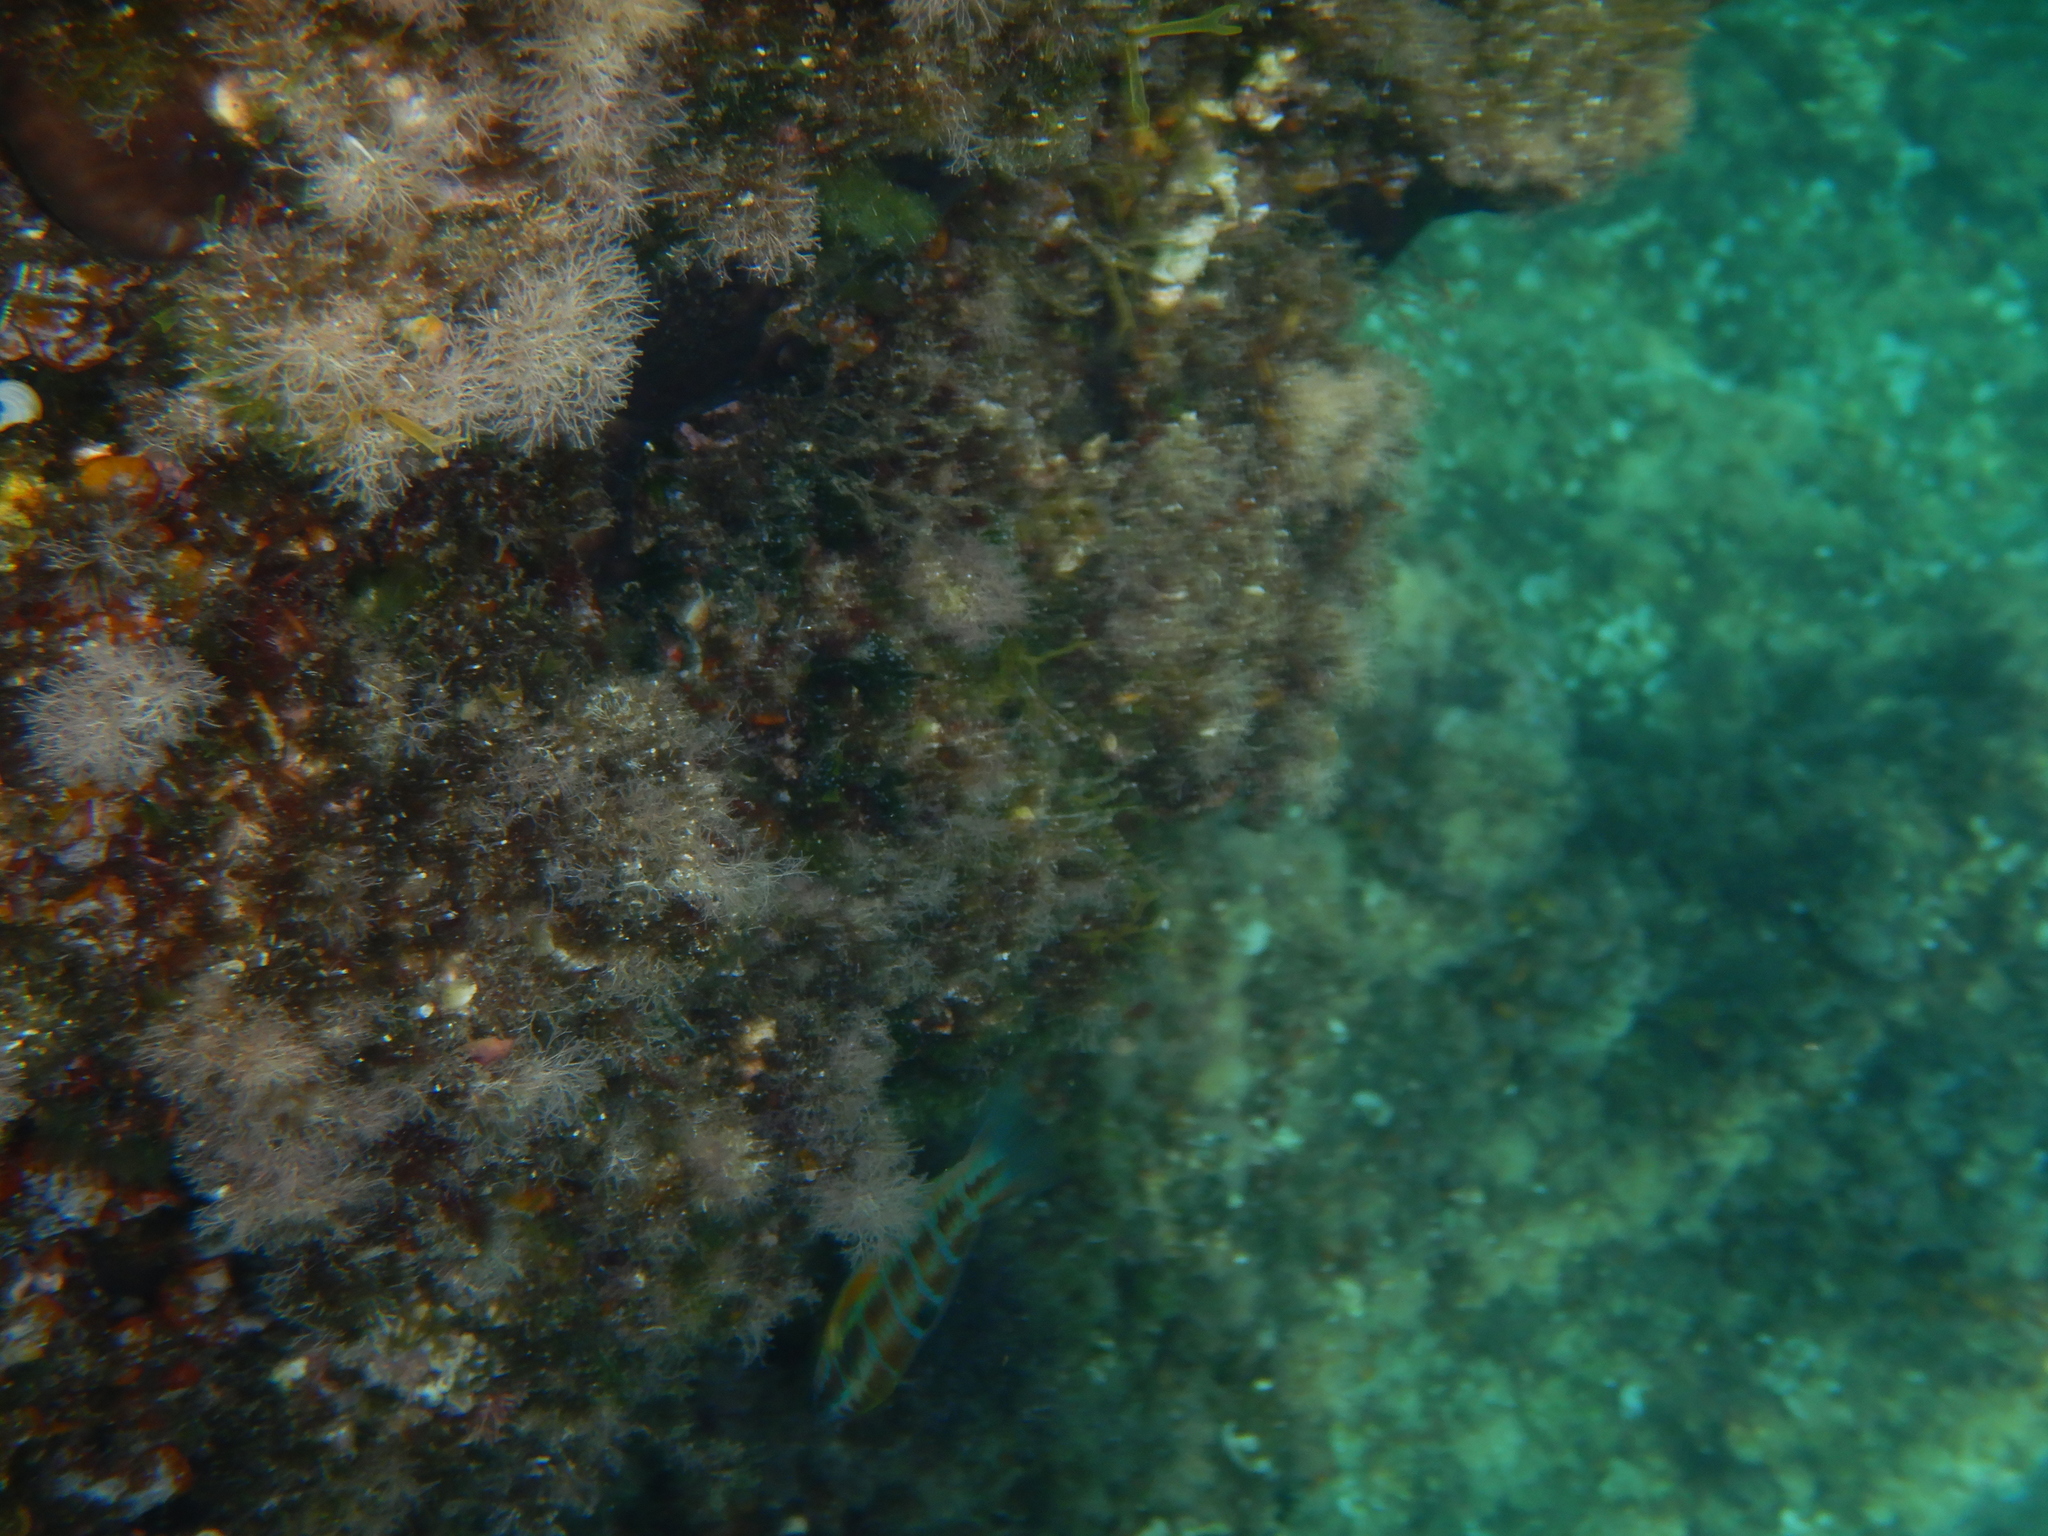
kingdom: Animalia
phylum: Chordata
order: Perciformes
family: Labridae
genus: Thalassoma
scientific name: Thalassoma pavo
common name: Ornate wrasse
